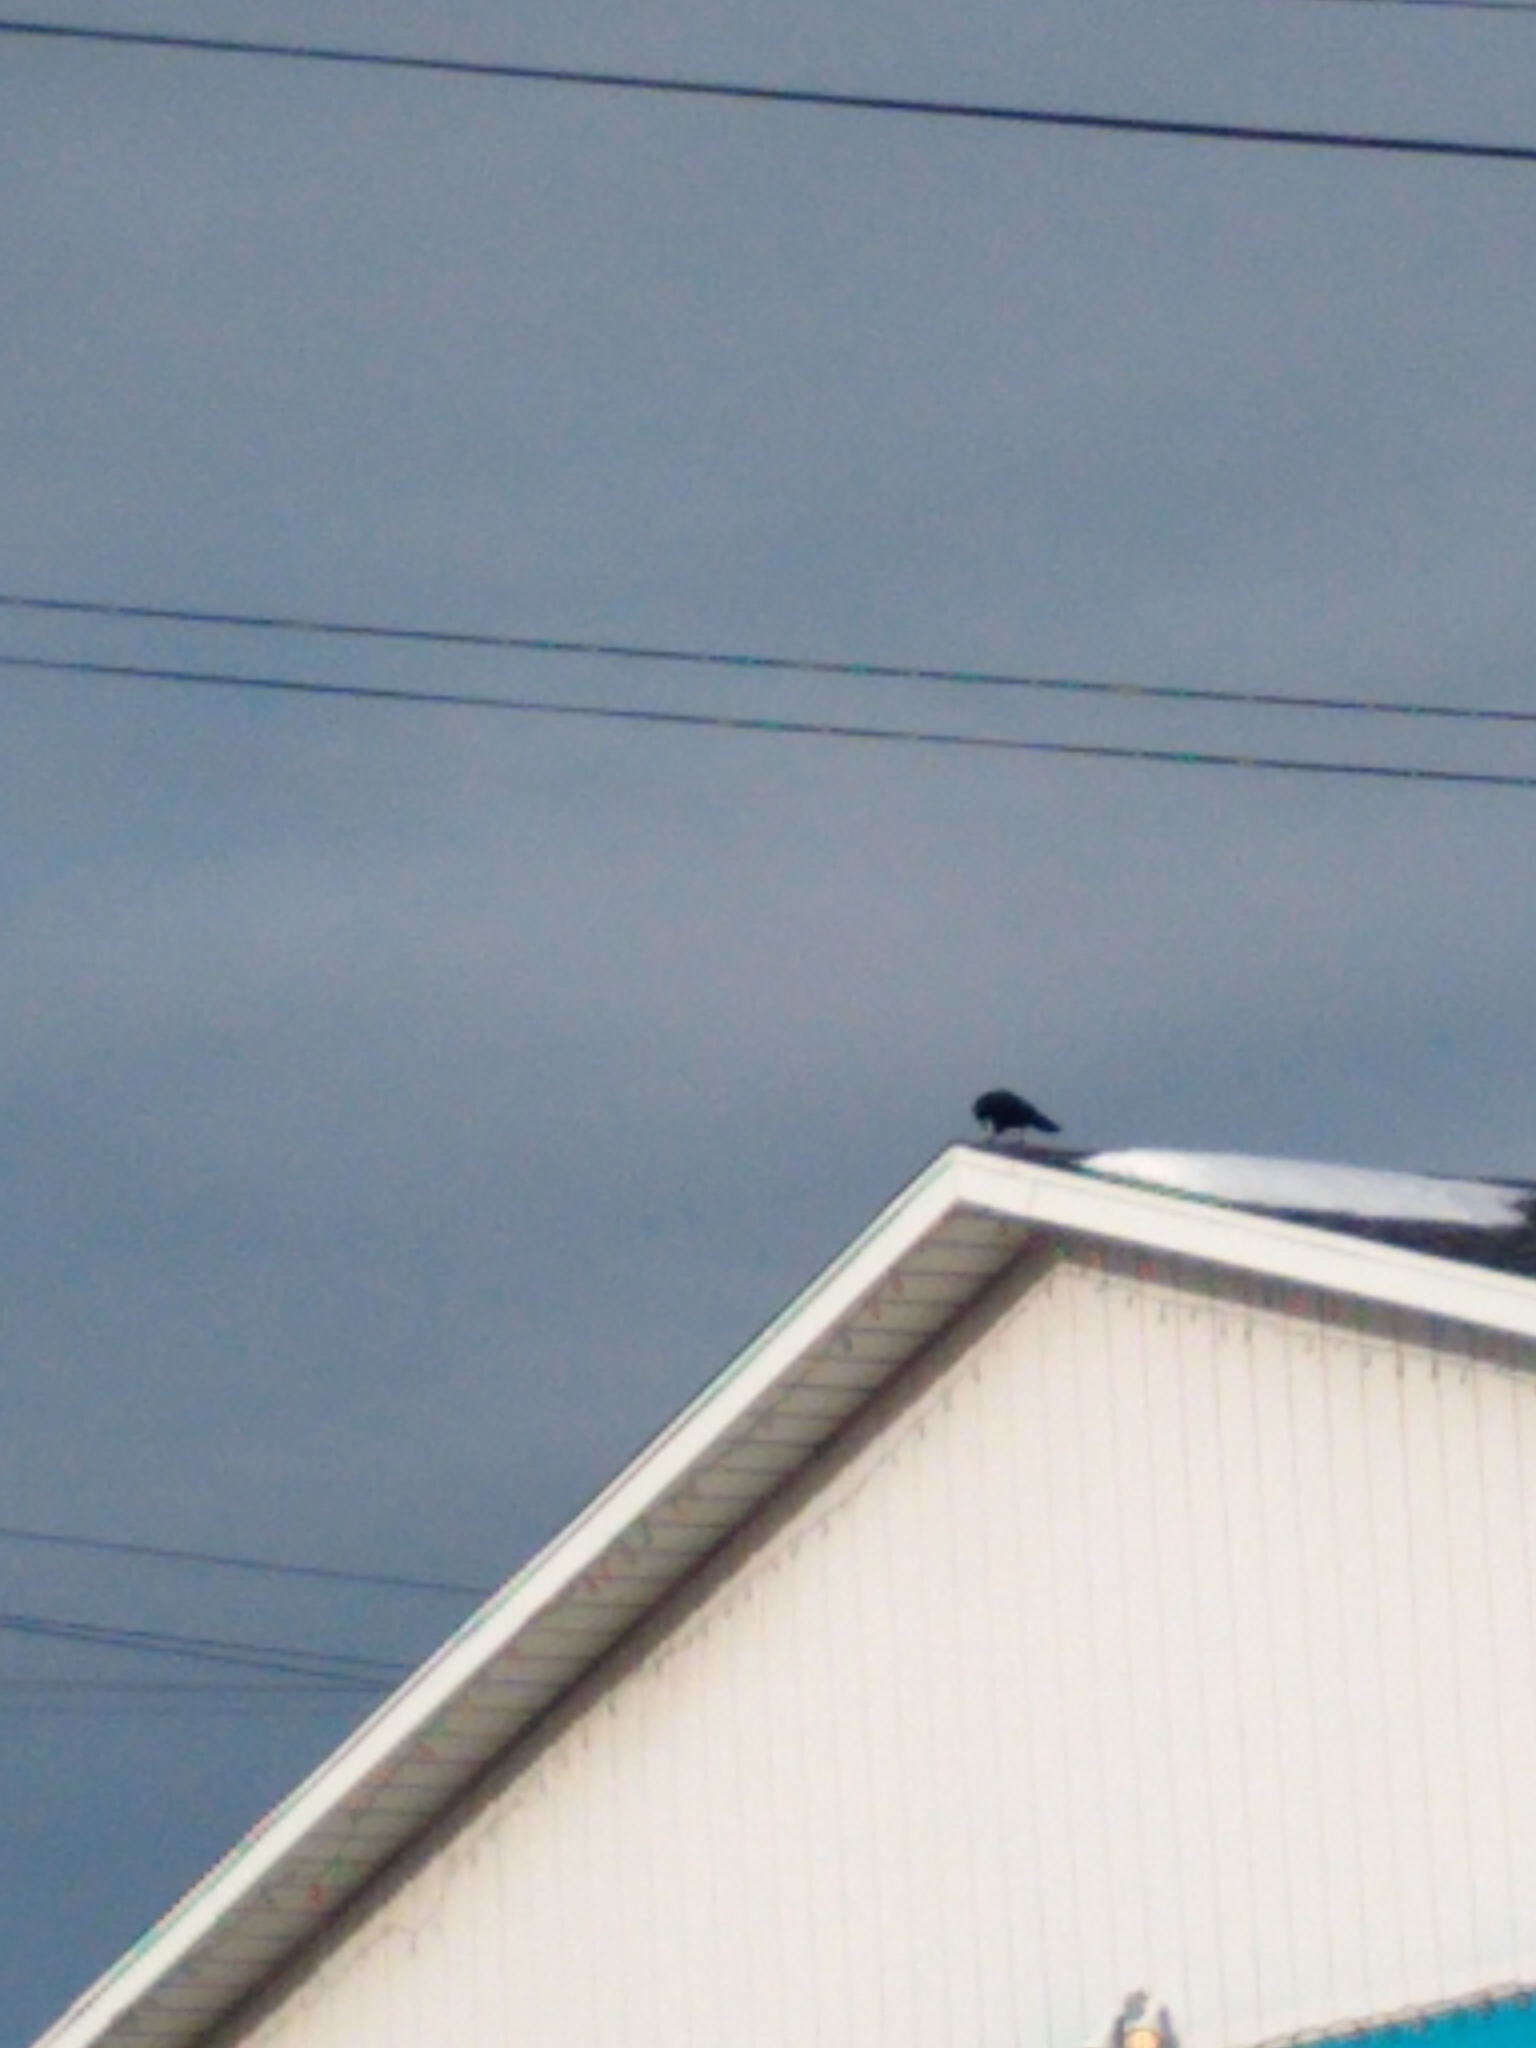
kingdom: Animalia
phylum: Chordata
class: Aves
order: Passeriformes
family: Corvidae
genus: Corvus
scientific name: Corvus brachyrhynchos
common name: American crow
